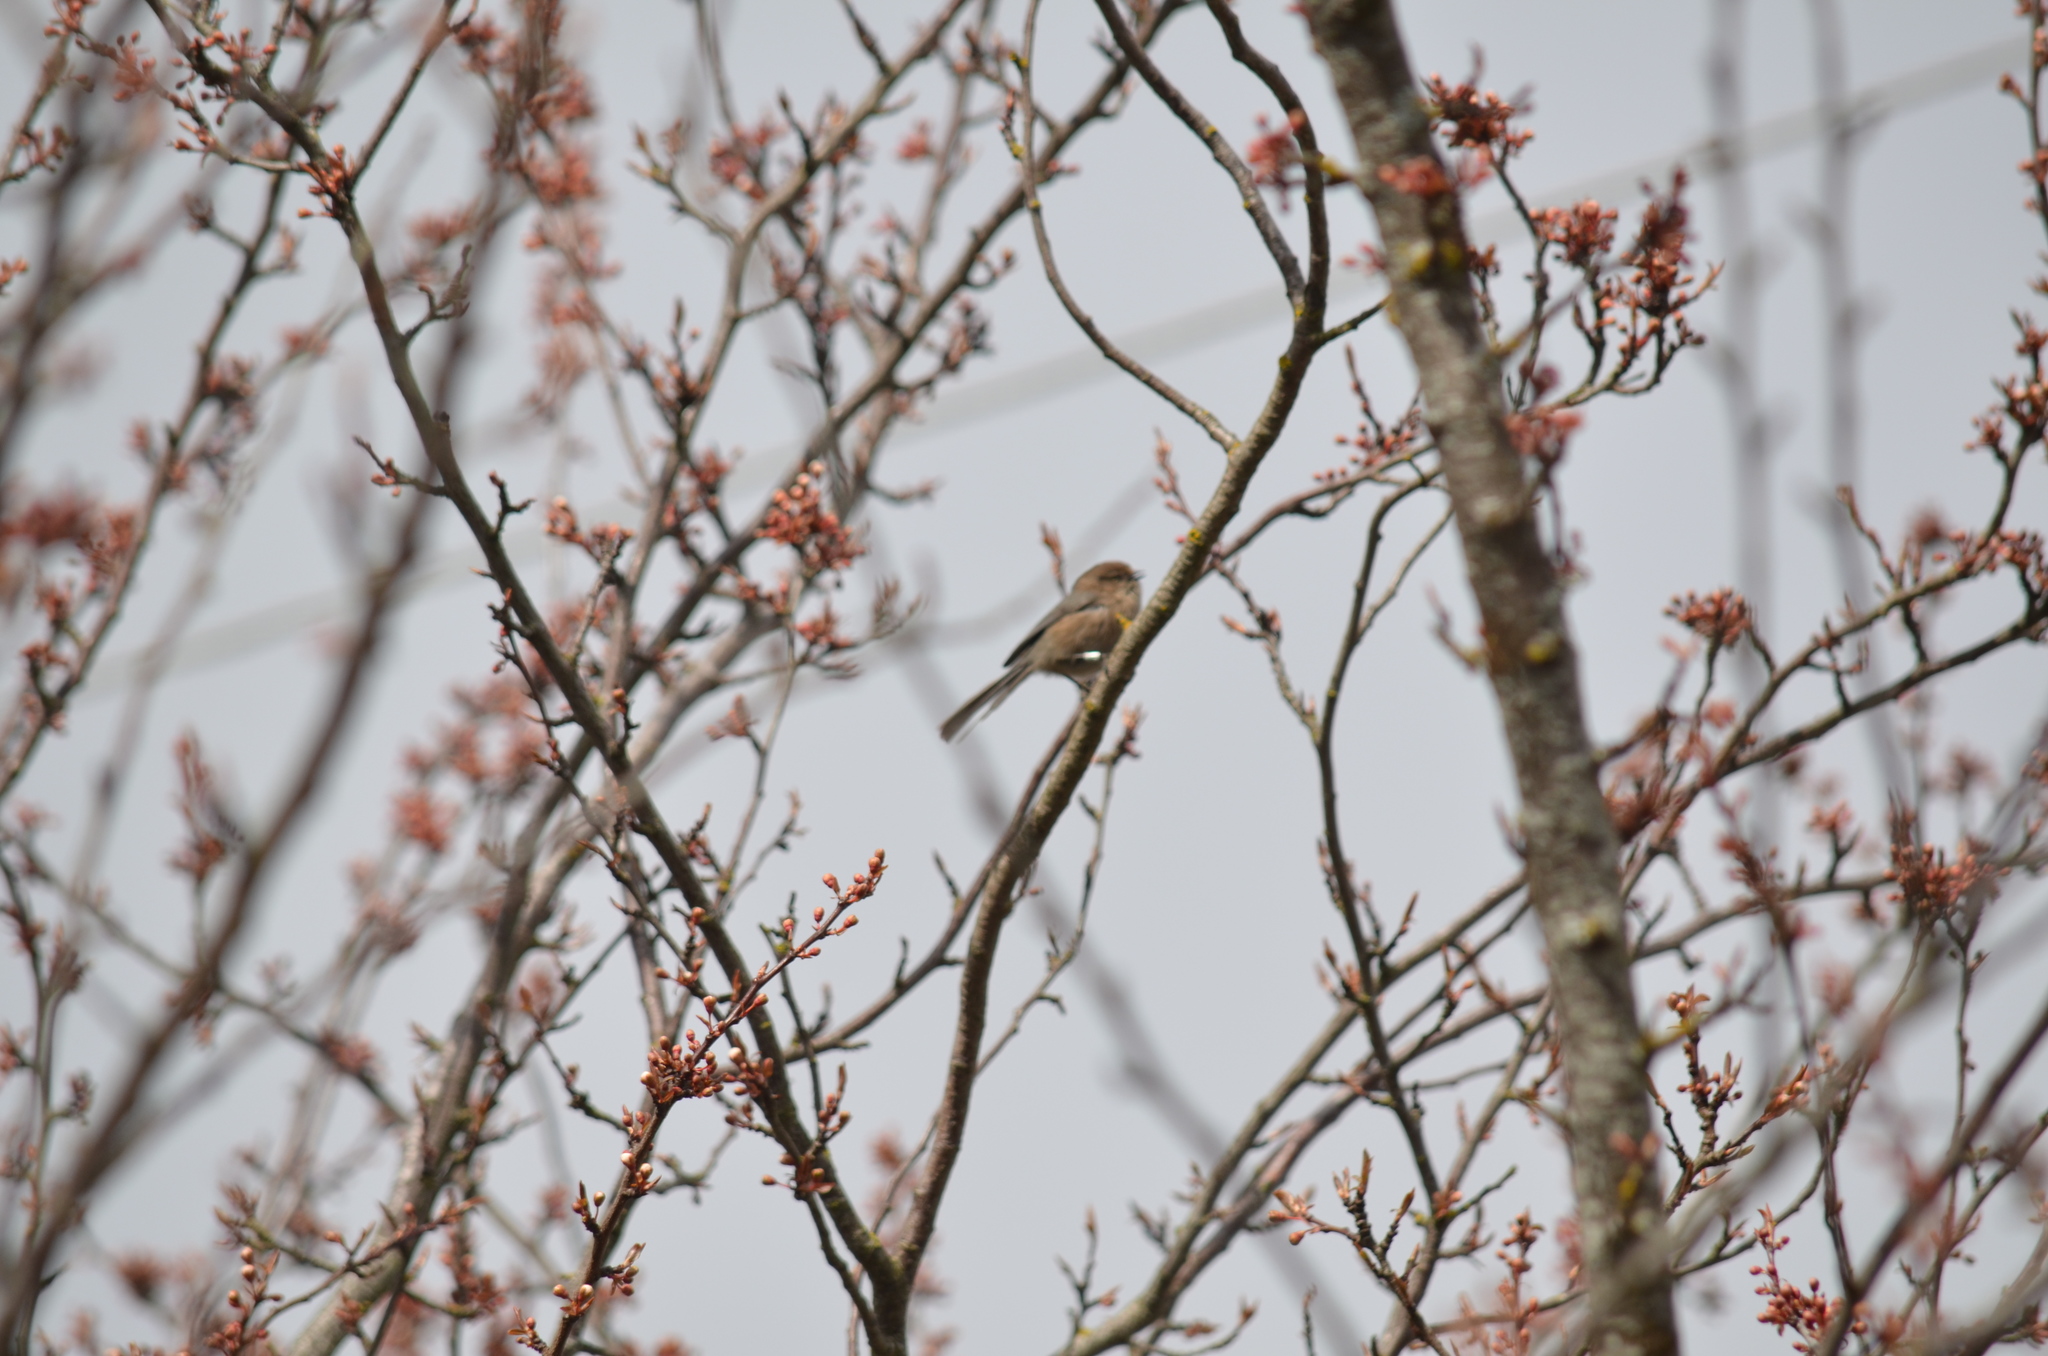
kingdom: Animalia
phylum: Chordata
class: Aves
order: Passeriformes
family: Aegithalidae
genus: Psaltriparus
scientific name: Psaltriparus minimus
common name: American bushtit
